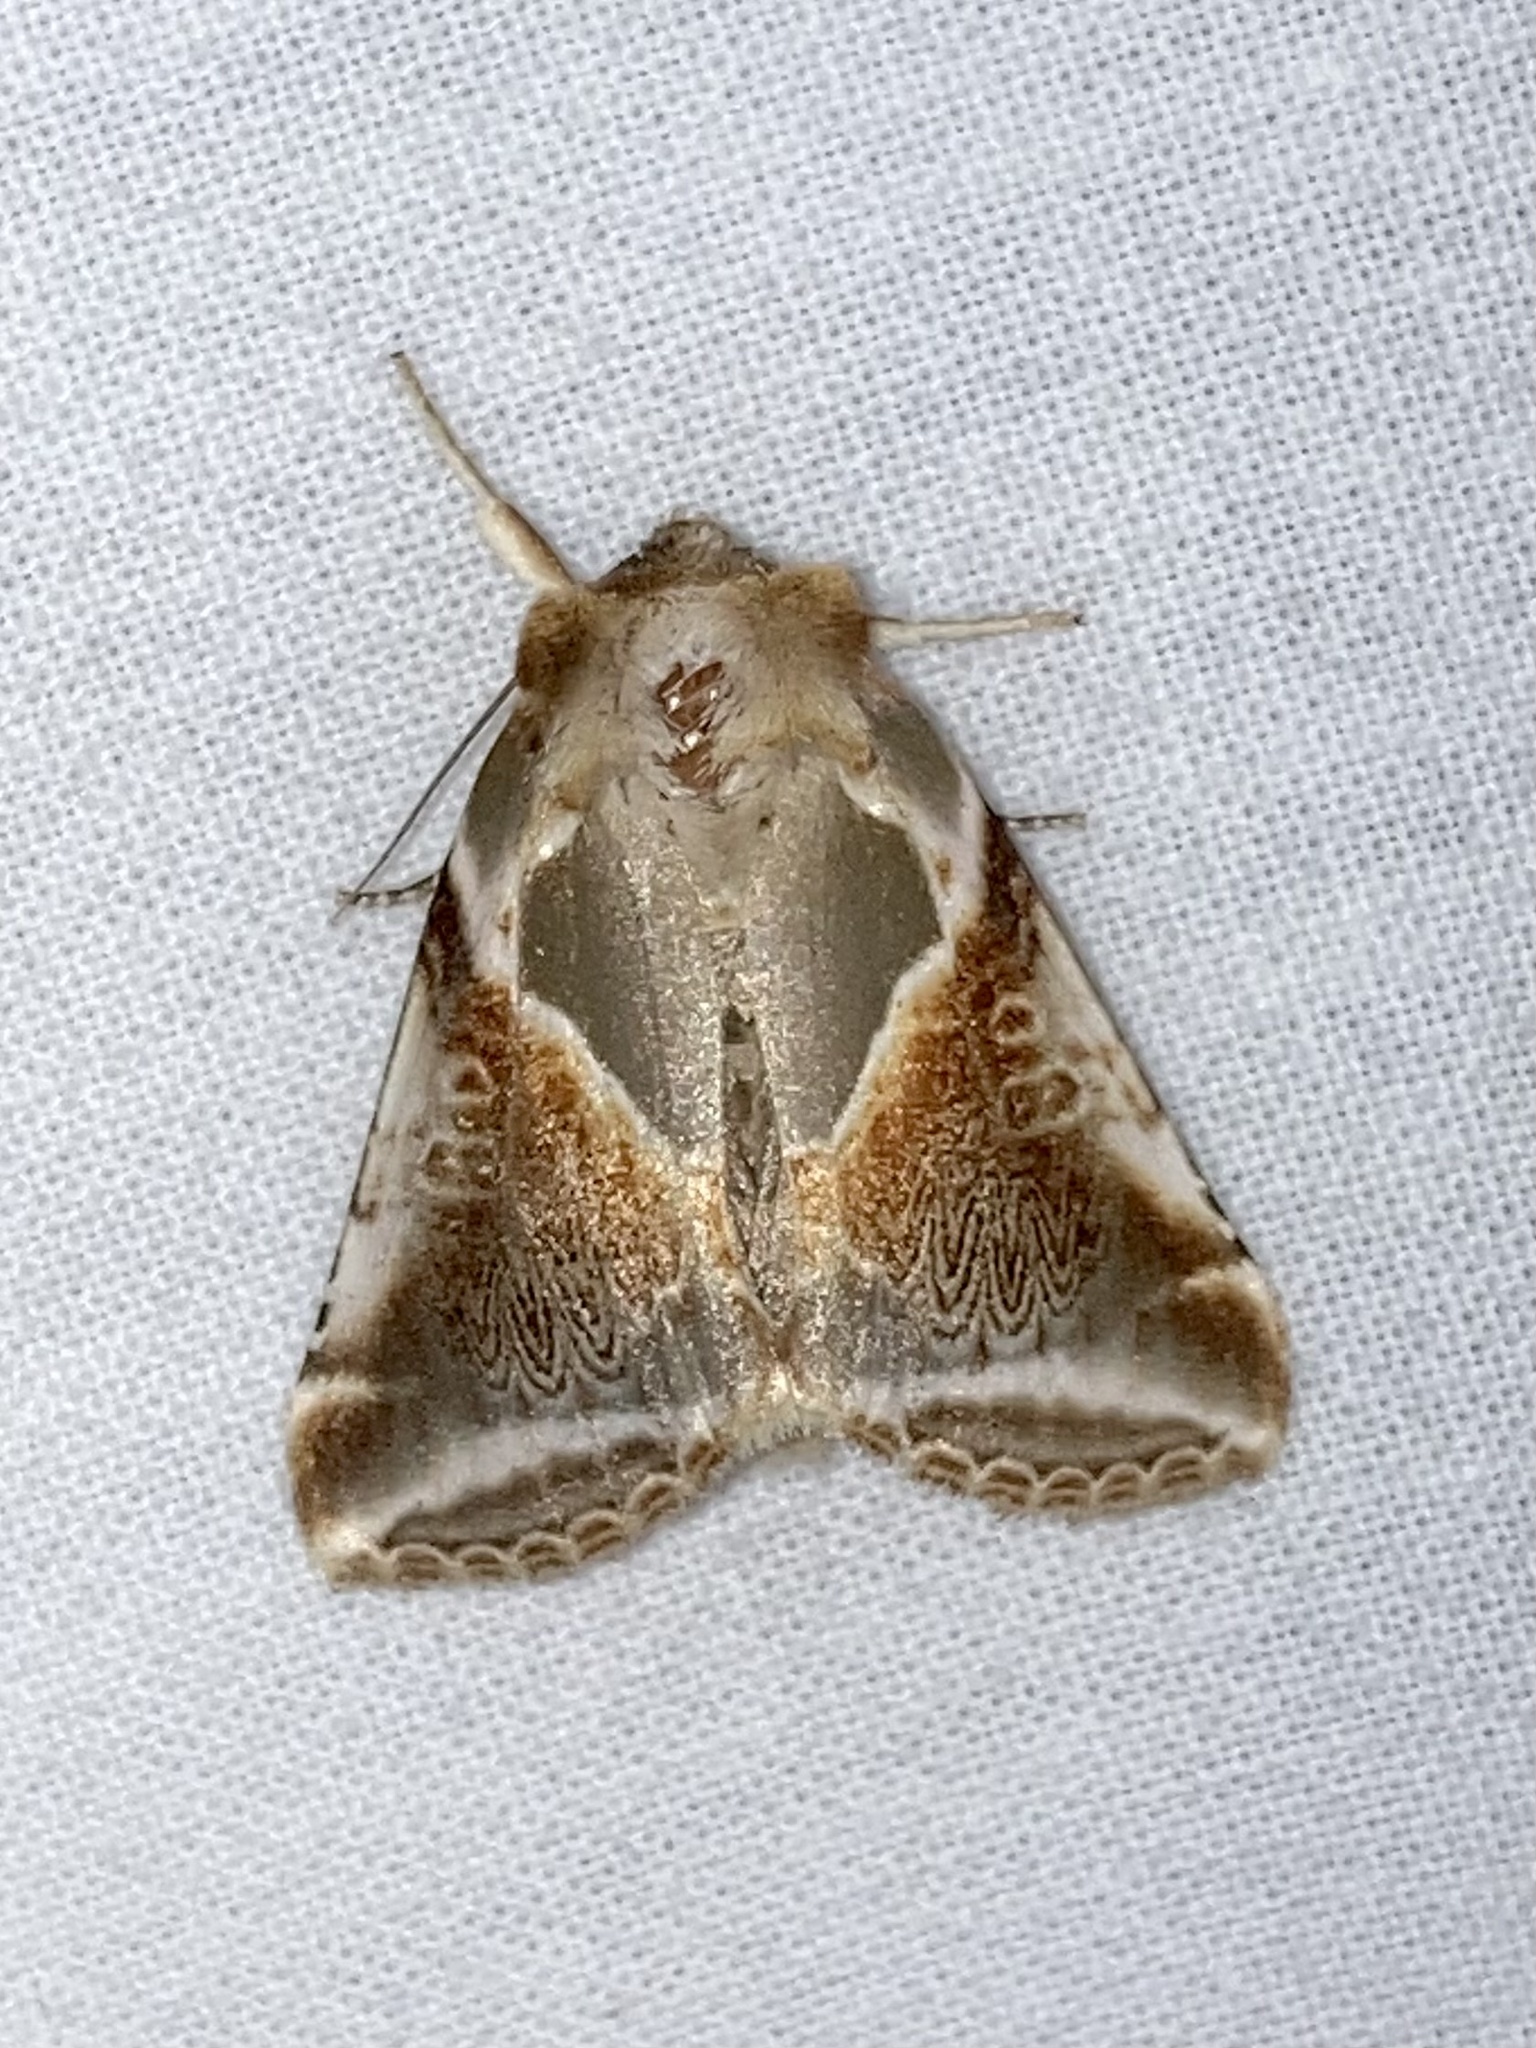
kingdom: Animalia
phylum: Arthropoda
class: Insecta
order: Lepidoptera
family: Drepanidae
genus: Habrosyne
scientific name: Habrosyne pyritoides
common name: Buff arches
